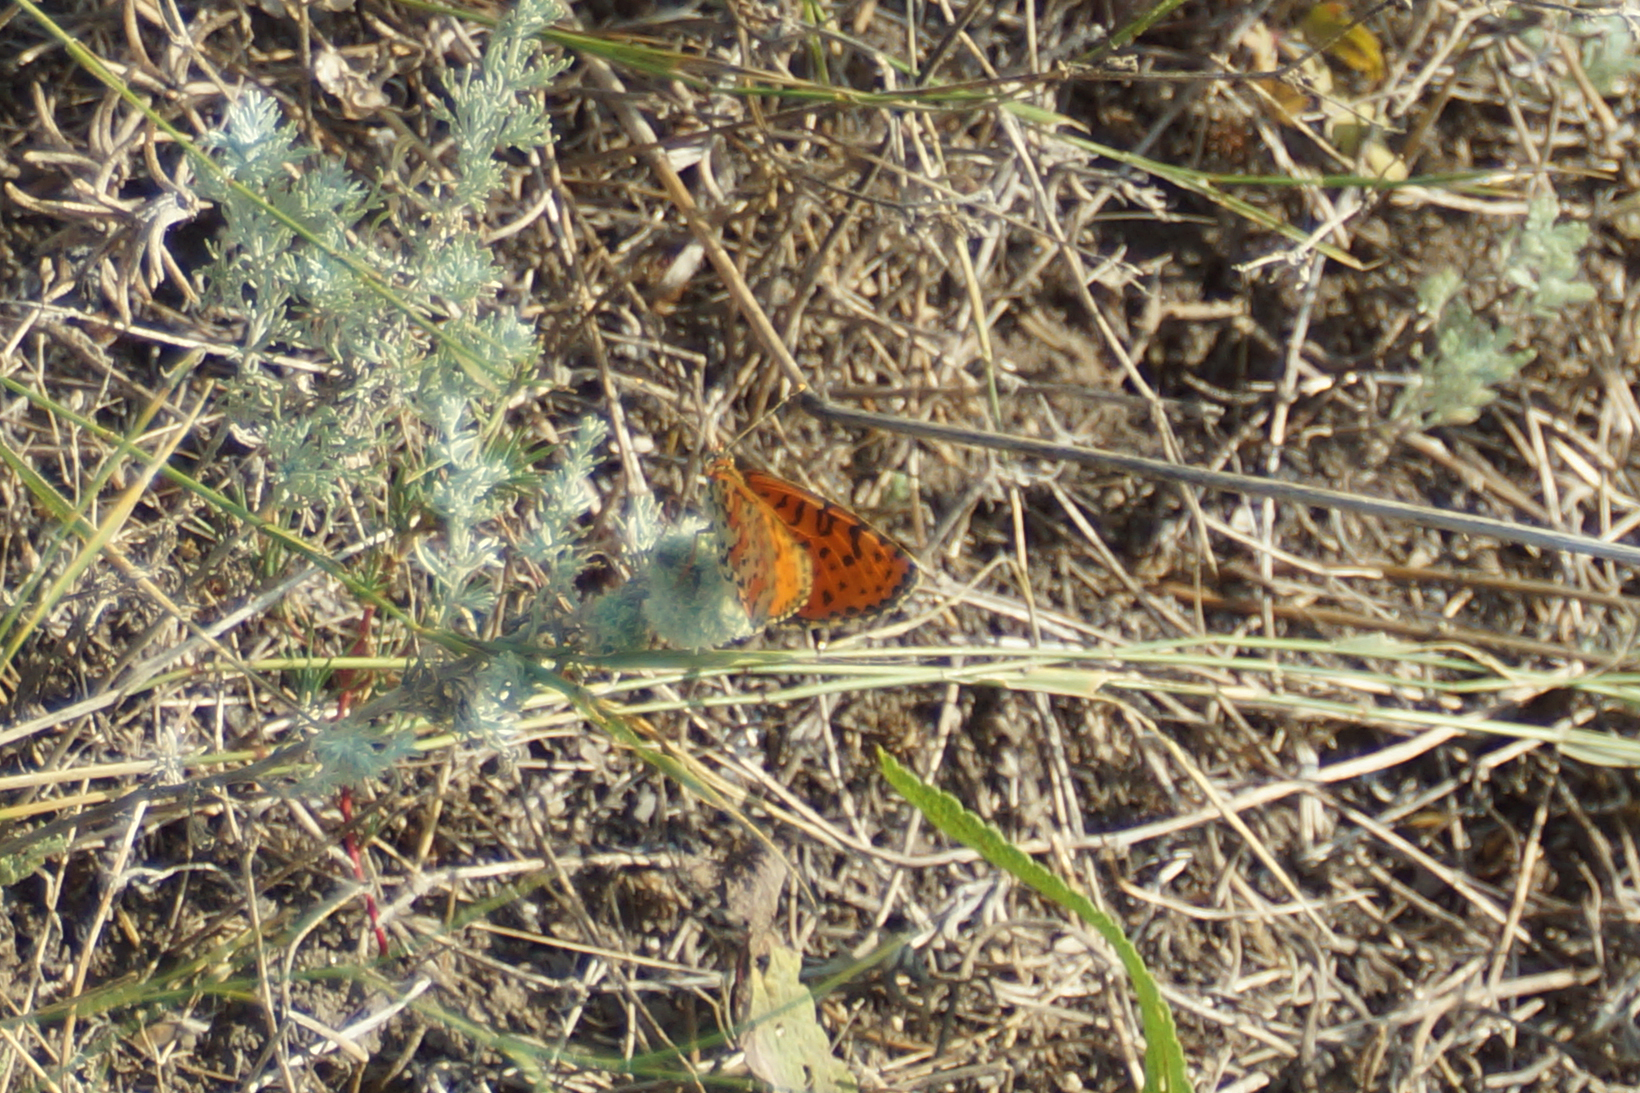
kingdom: Animalia
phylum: Arthropoda
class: Insecta
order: Lepidoptera
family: Nymphalidae
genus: Melitaea
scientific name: Melitaea didyma
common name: Spotted fritillary
